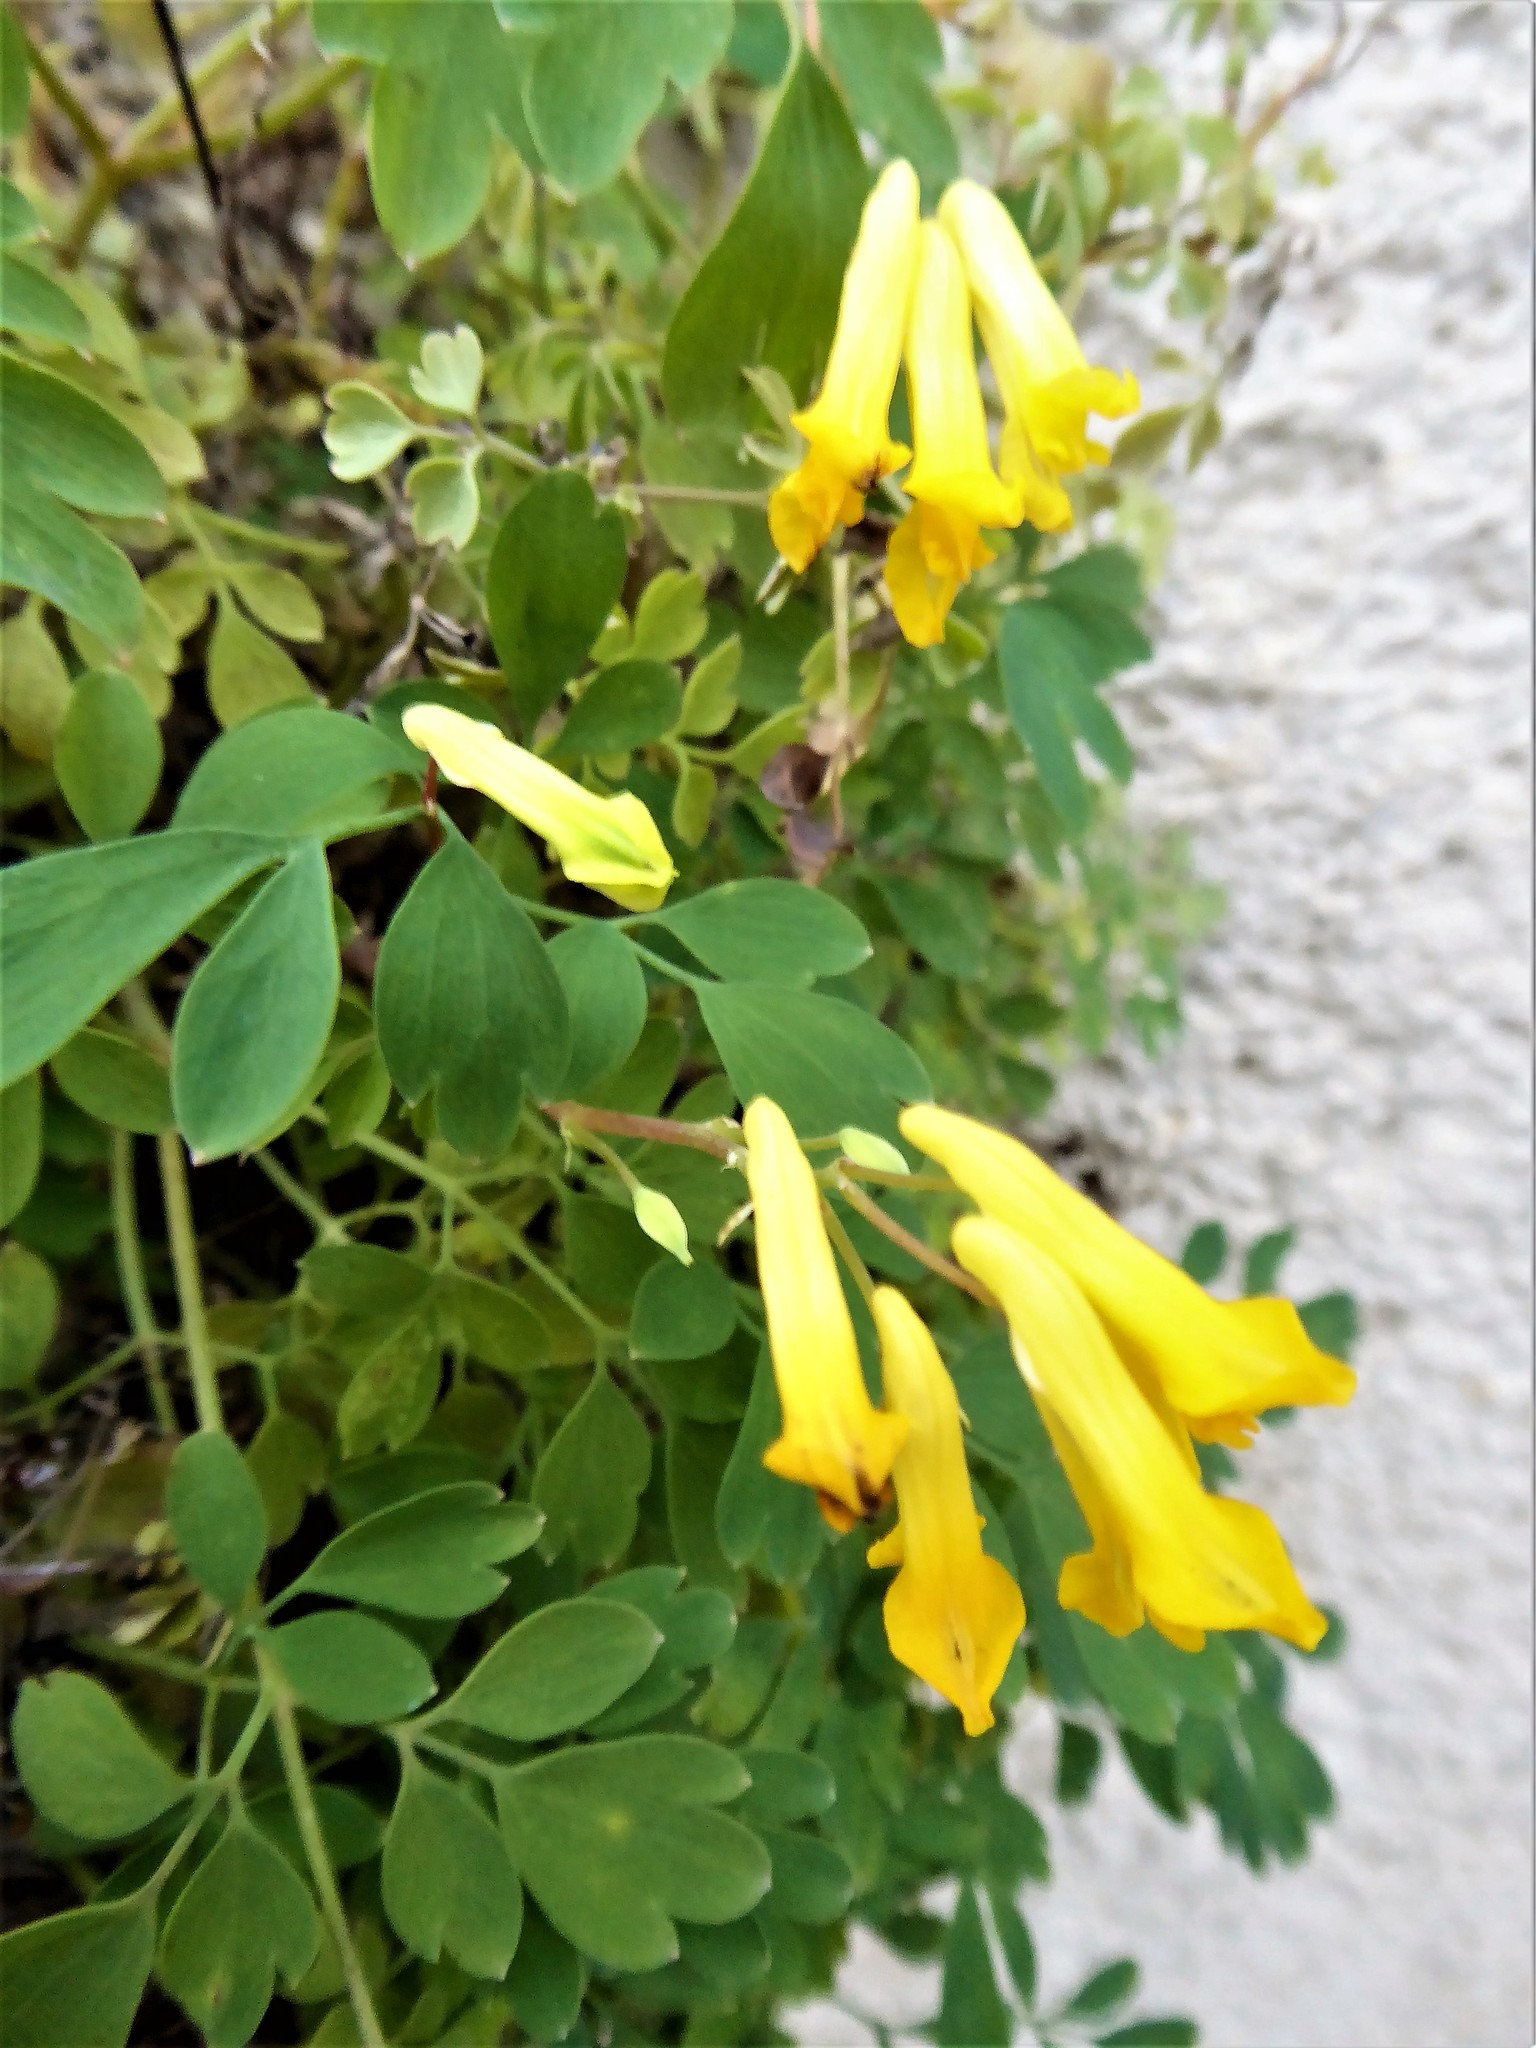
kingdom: Plantae
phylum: Tracheophyta
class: Magnoliopsida
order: Ranunculales
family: Papaveraceae
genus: Pseudofumaria
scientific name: Pseudofumaria lutea
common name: Yellow corydalis
